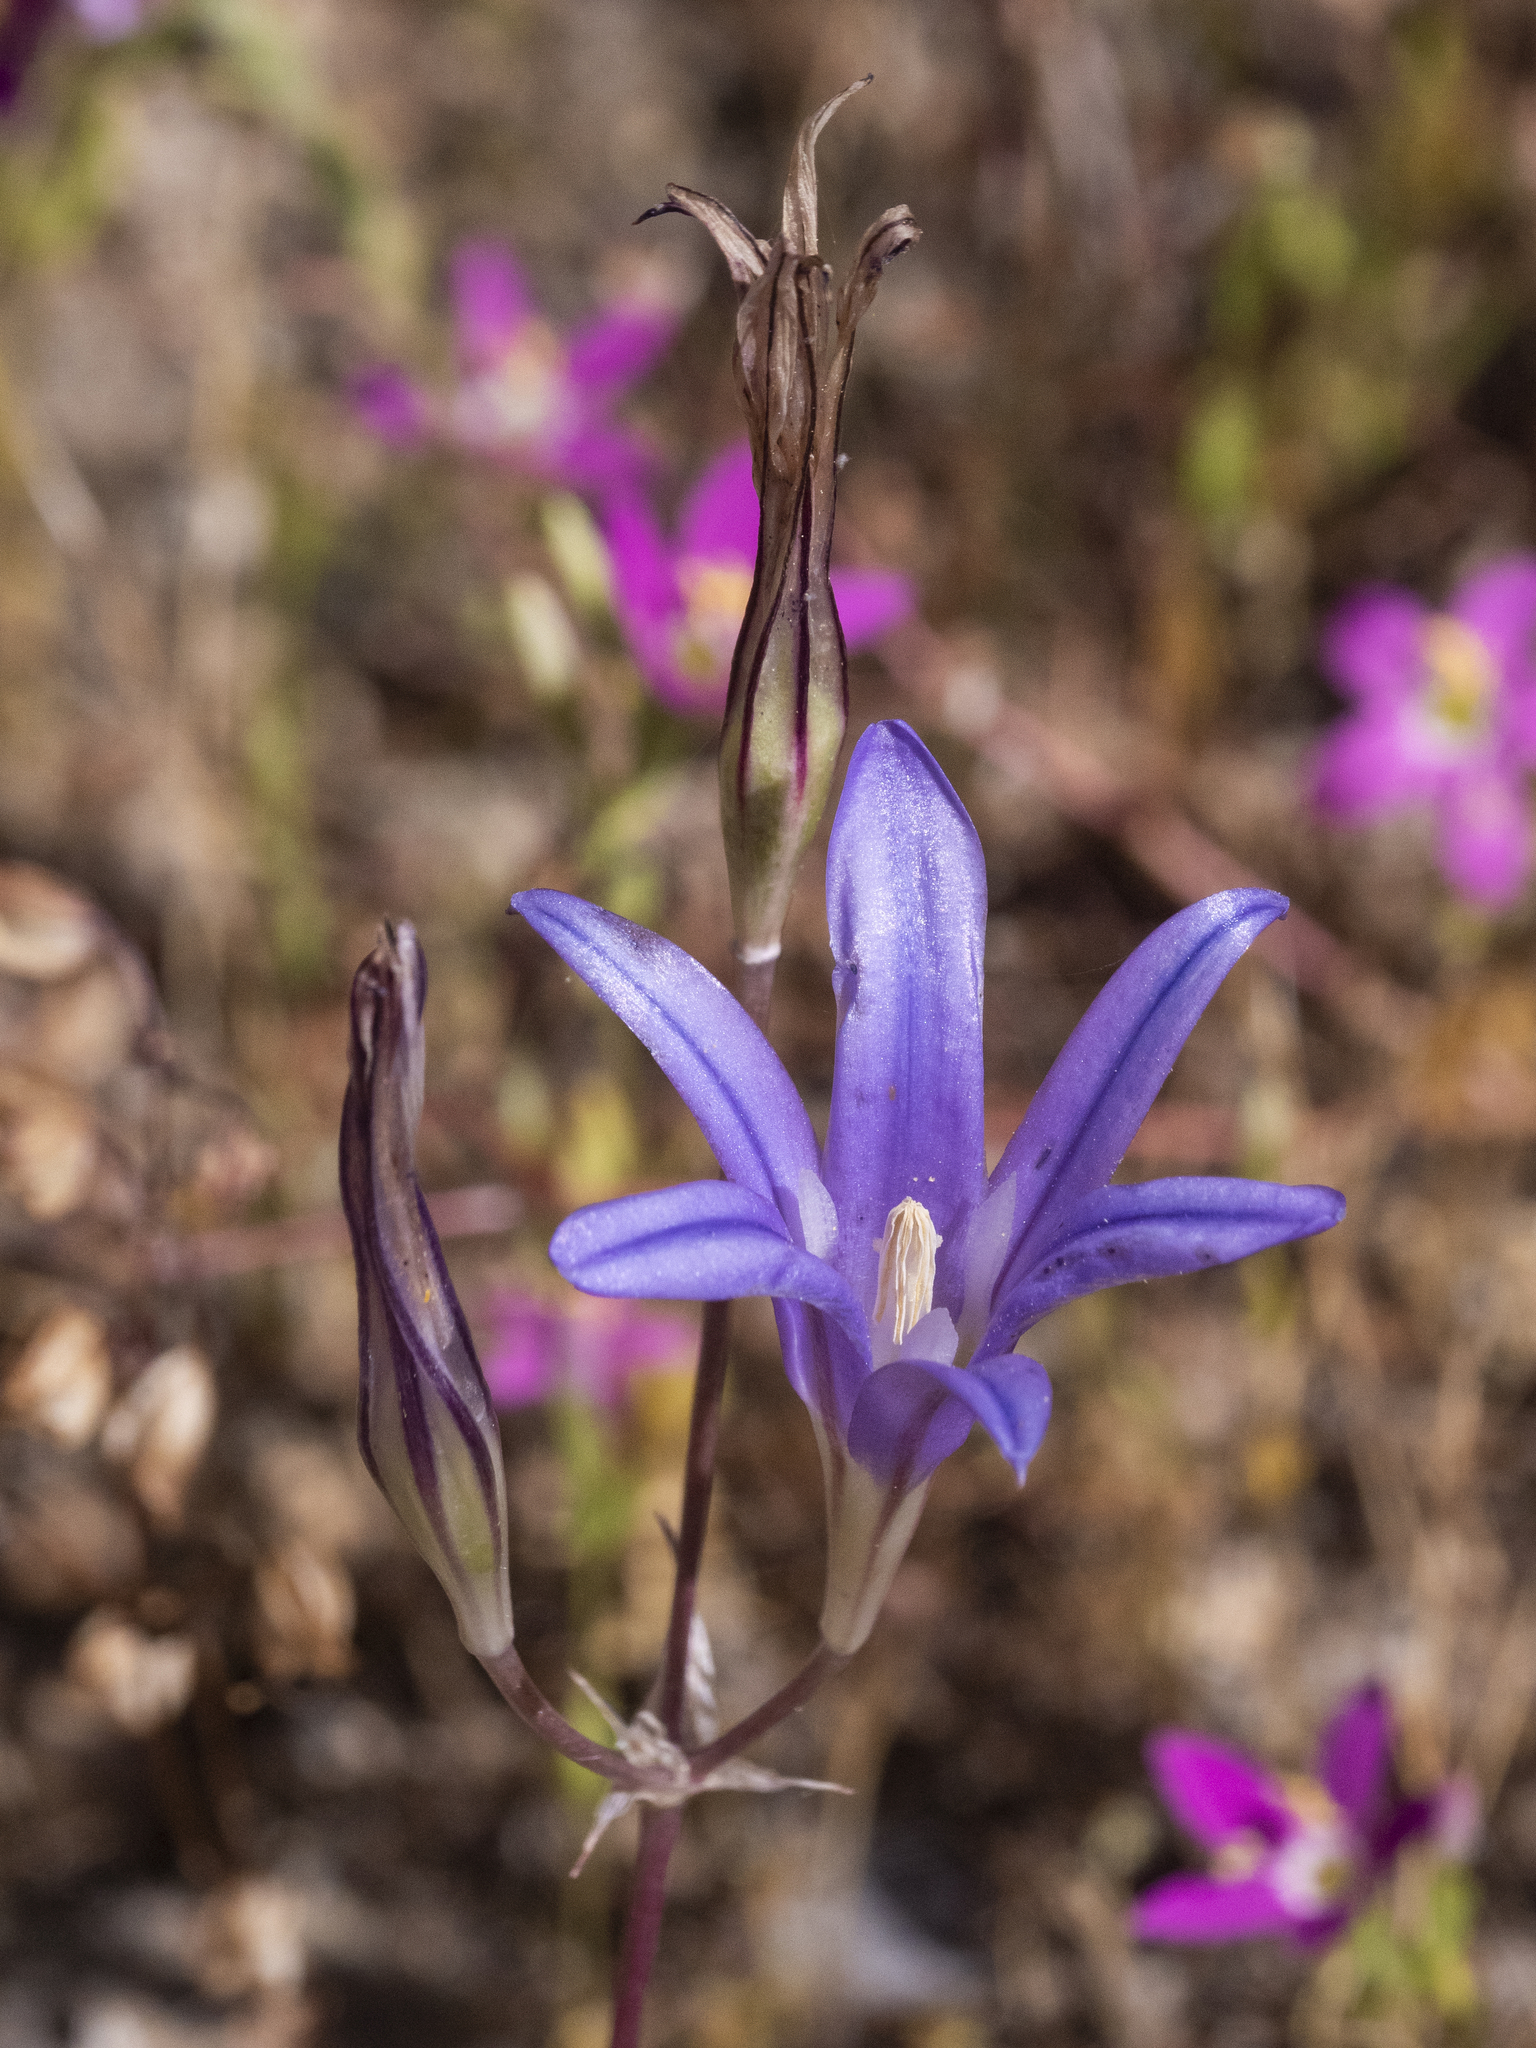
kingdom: Plantae
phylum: Tracheophyta
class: Liliopsida
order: Asparagales
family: Asparagaceae
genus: Brodiaea
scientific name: Brodiaea elegans
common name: Elegant cluster-lily
